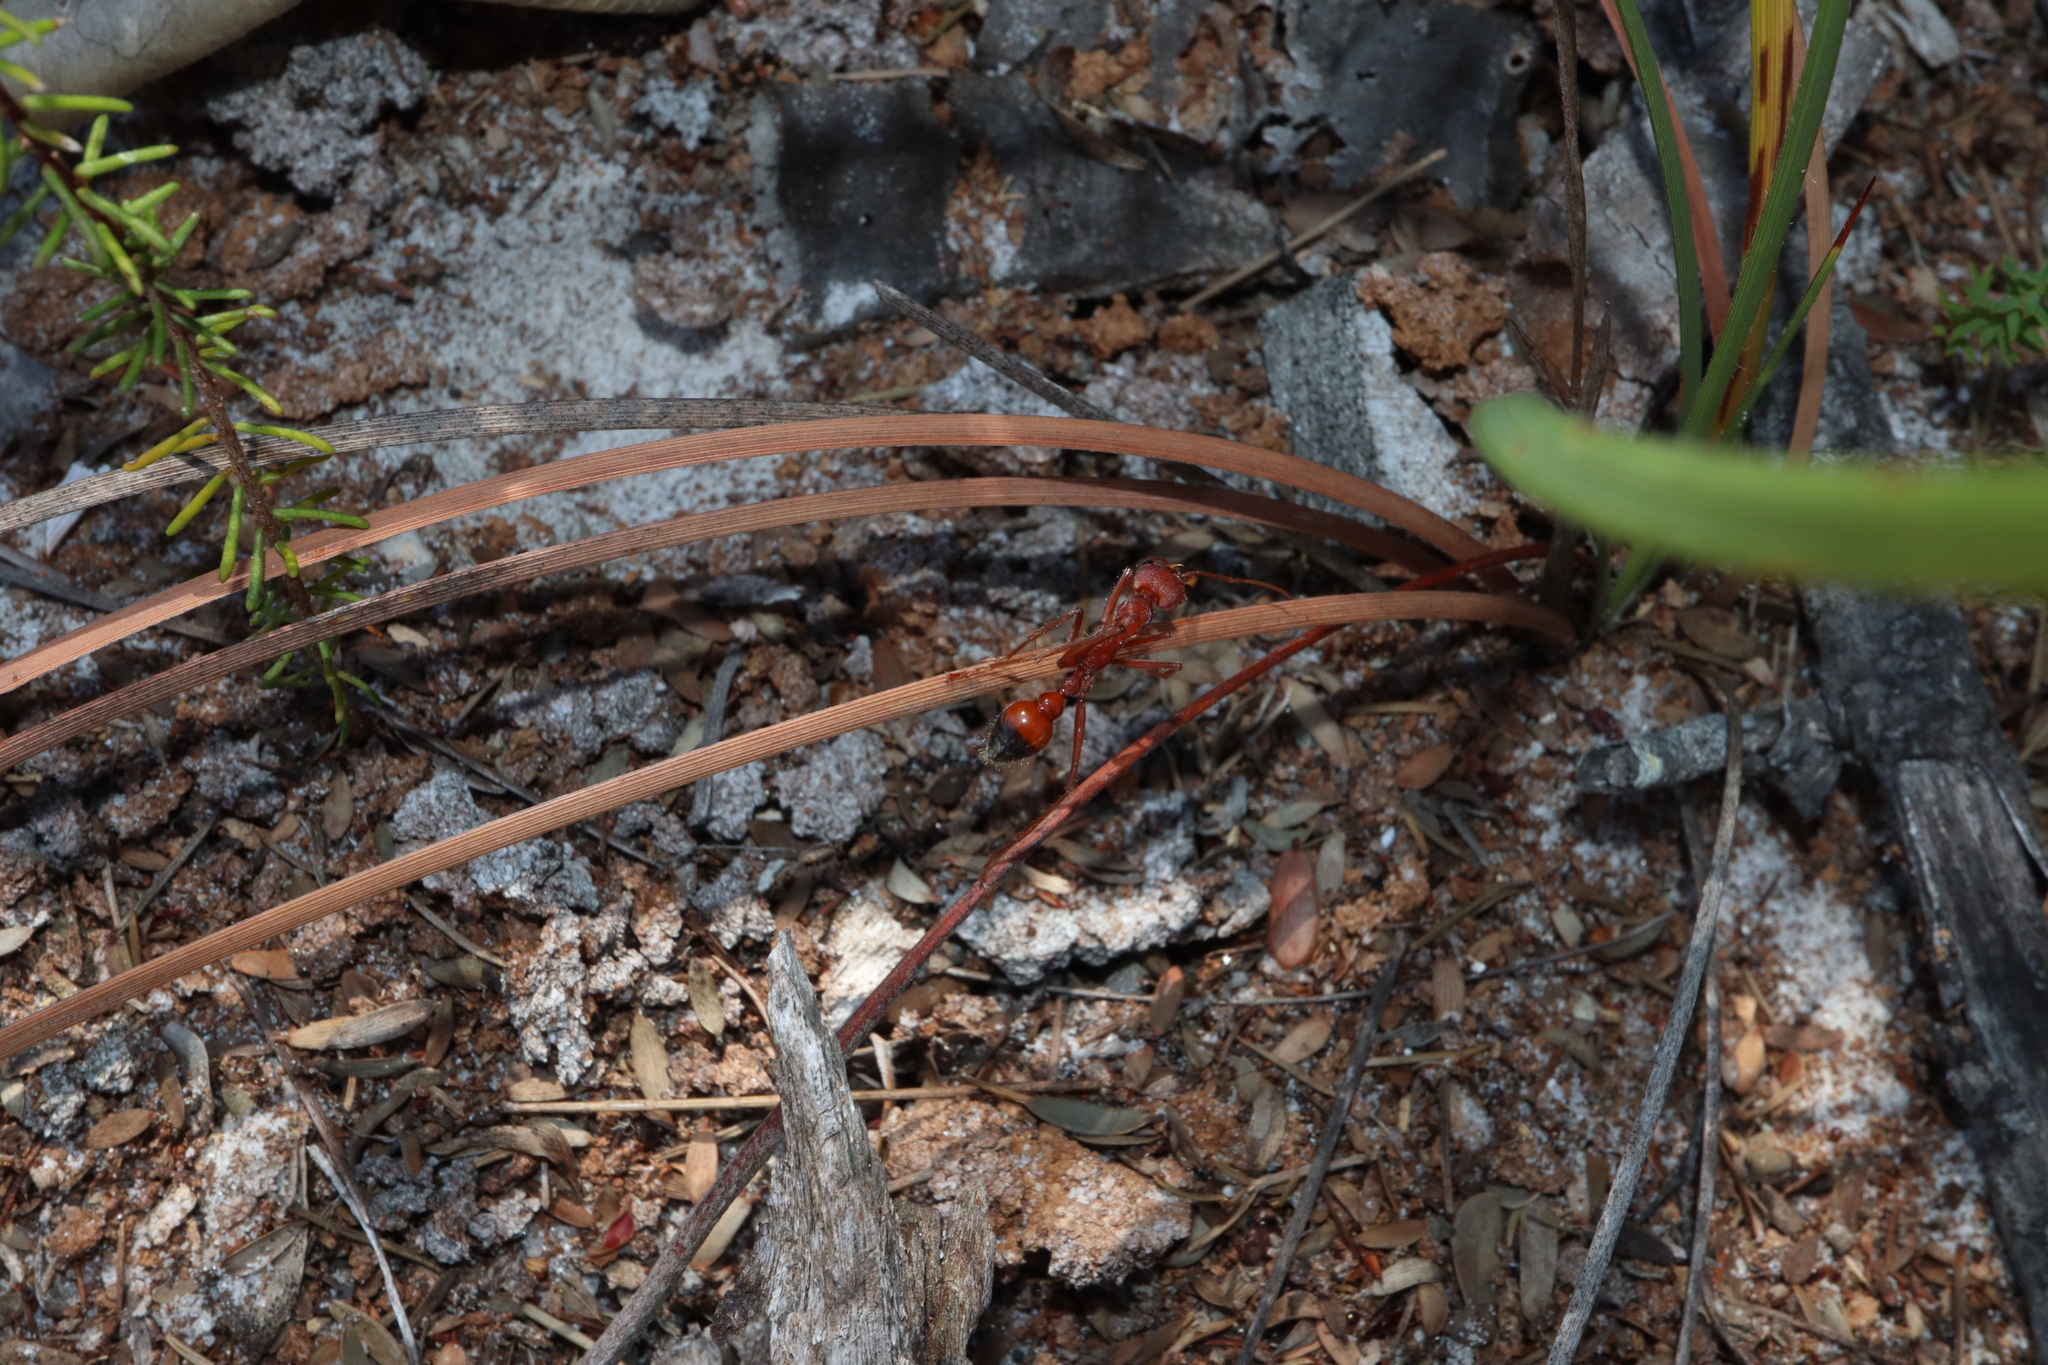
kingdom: Animalia
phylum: Arthropoda
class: Insecta
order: Hymenoptera
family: Formicidae
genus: Myrmecia
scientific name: Myrmecia gulosa
